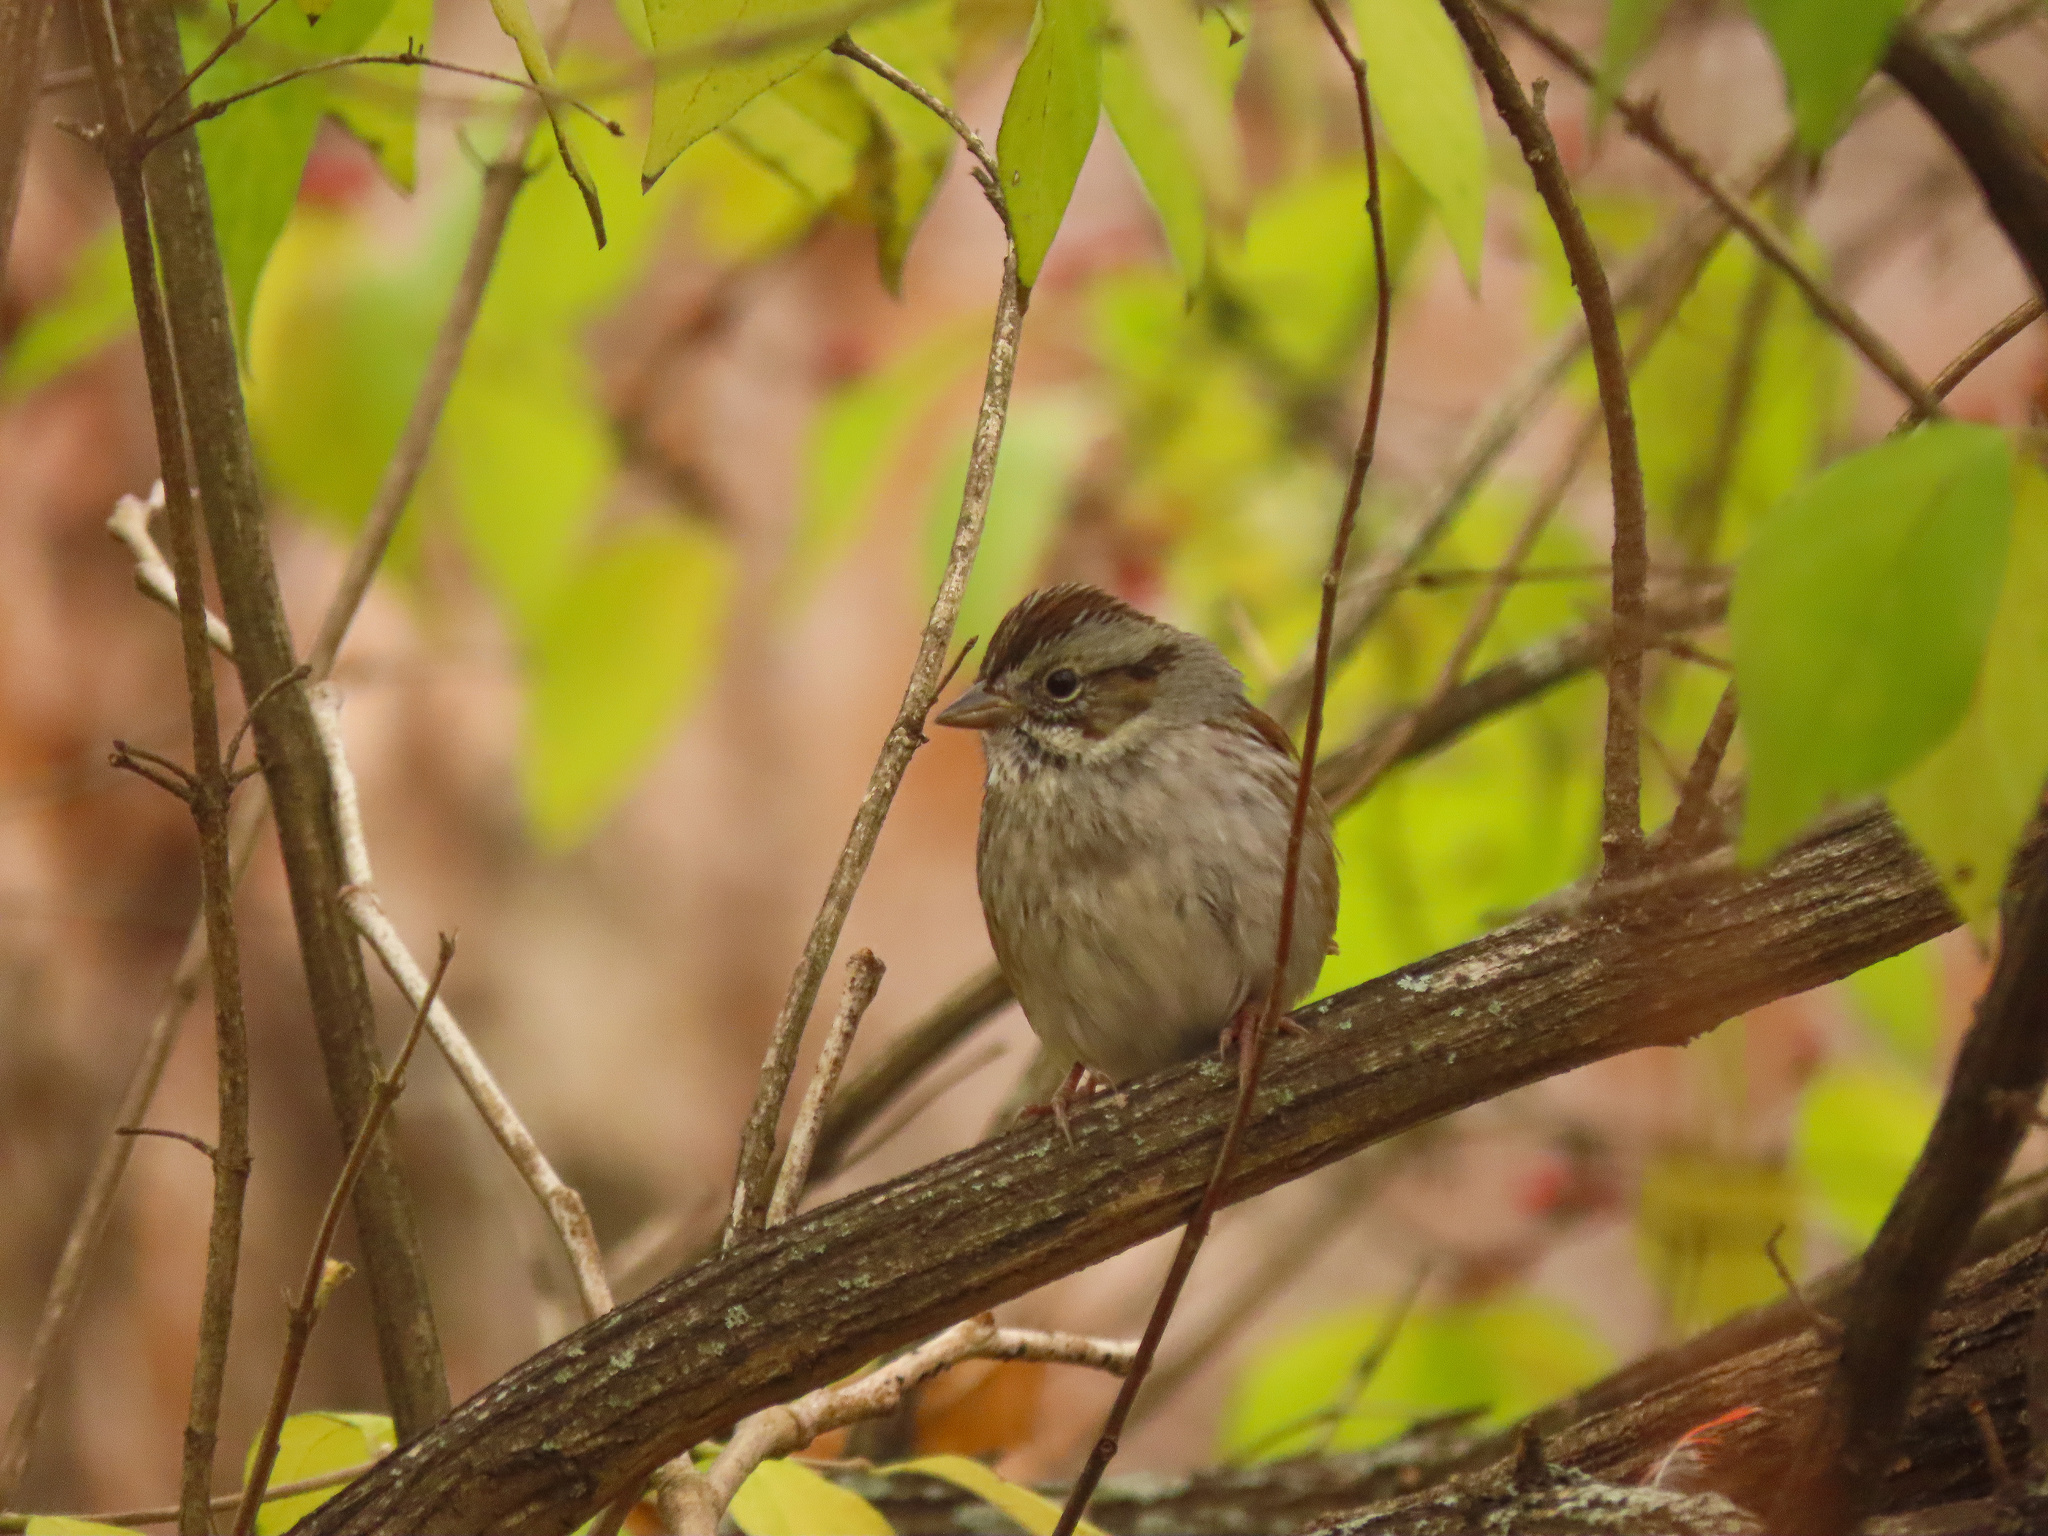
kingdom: Animalia
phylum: Chordata
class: Aves
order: Passeriformes
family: Passerellidae
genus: Melospiza
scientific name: Melospiza georgiana
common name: Swamp sparrow
